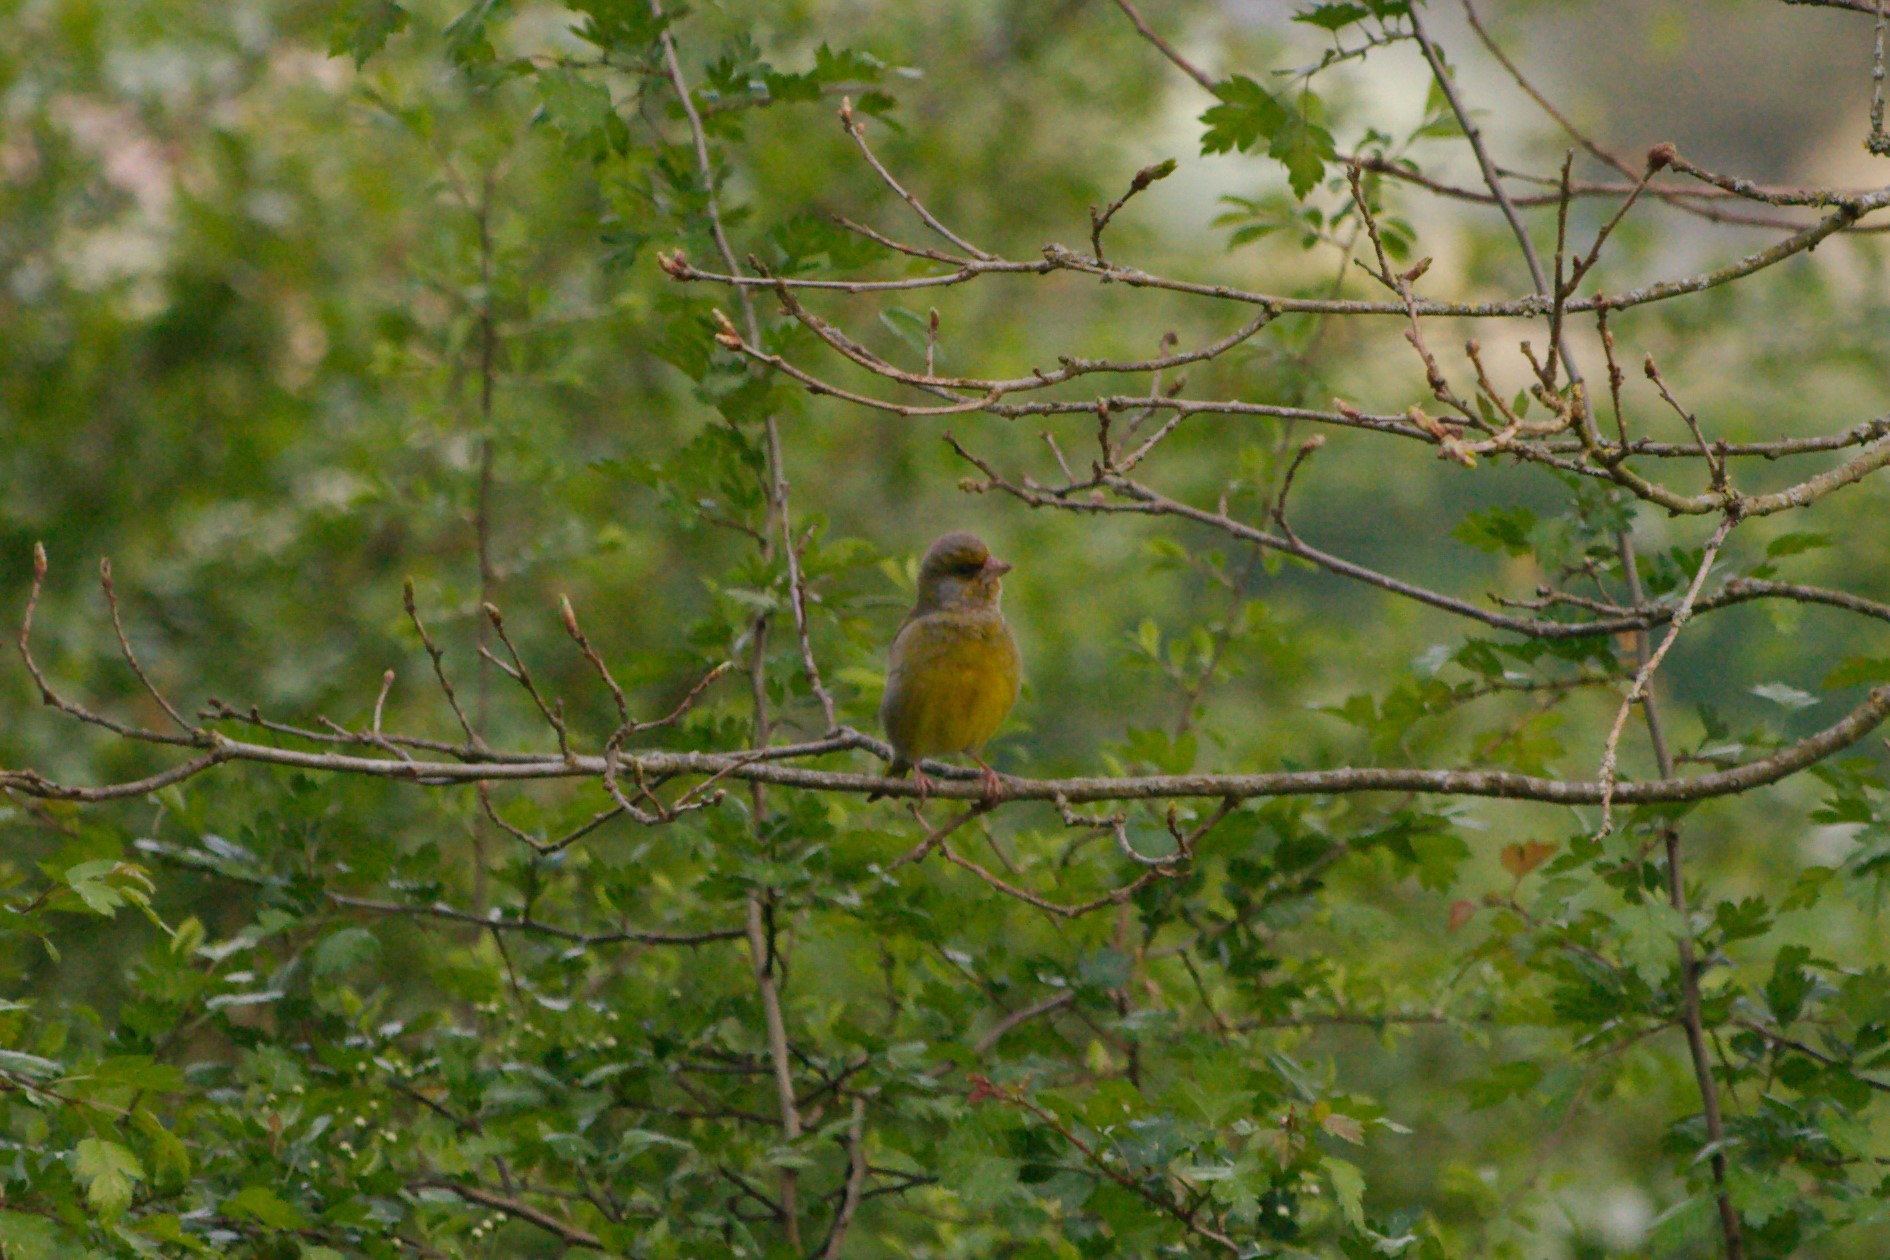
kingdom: Plantae
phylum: Tracheophyta
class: Liliopsida
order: Poales
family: Poaceae
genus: Chloris
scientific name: Chloris chloris
